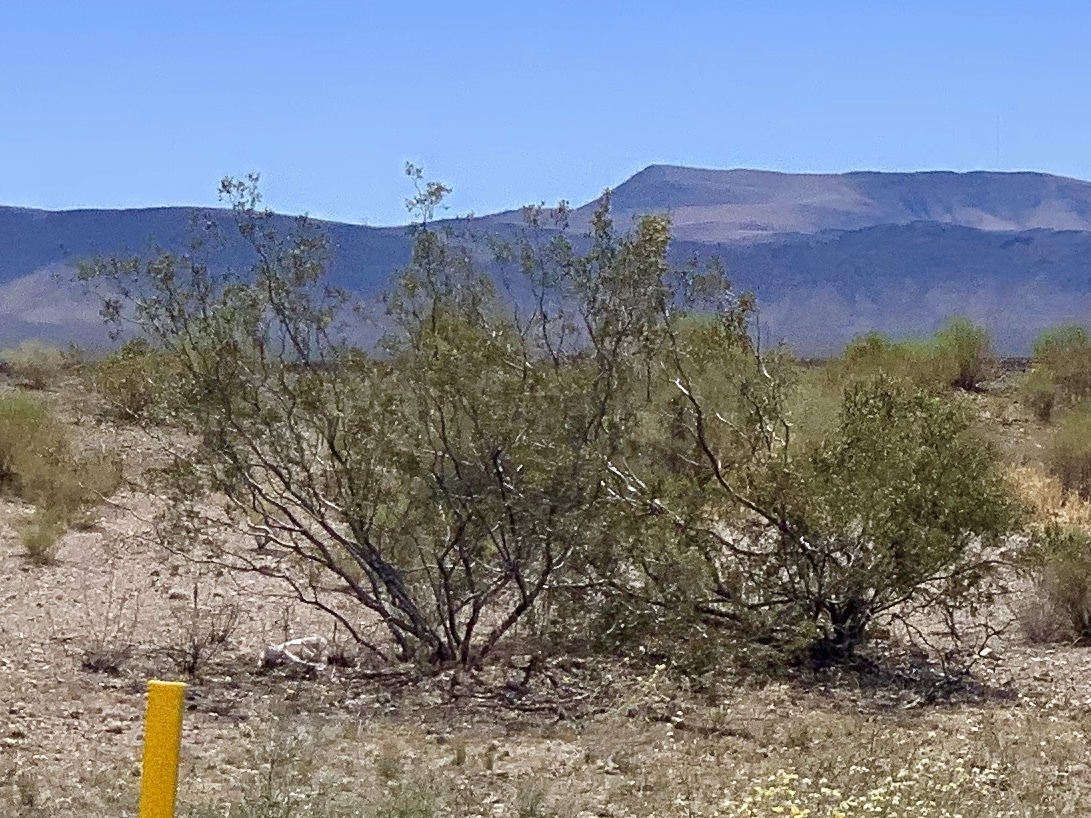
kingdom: Plantae
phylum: Tracheophyta
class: Magnoliopsida
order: Zygophyllales
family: Zygophyllaceae
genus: Larrea
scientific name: Larrea tridentata
